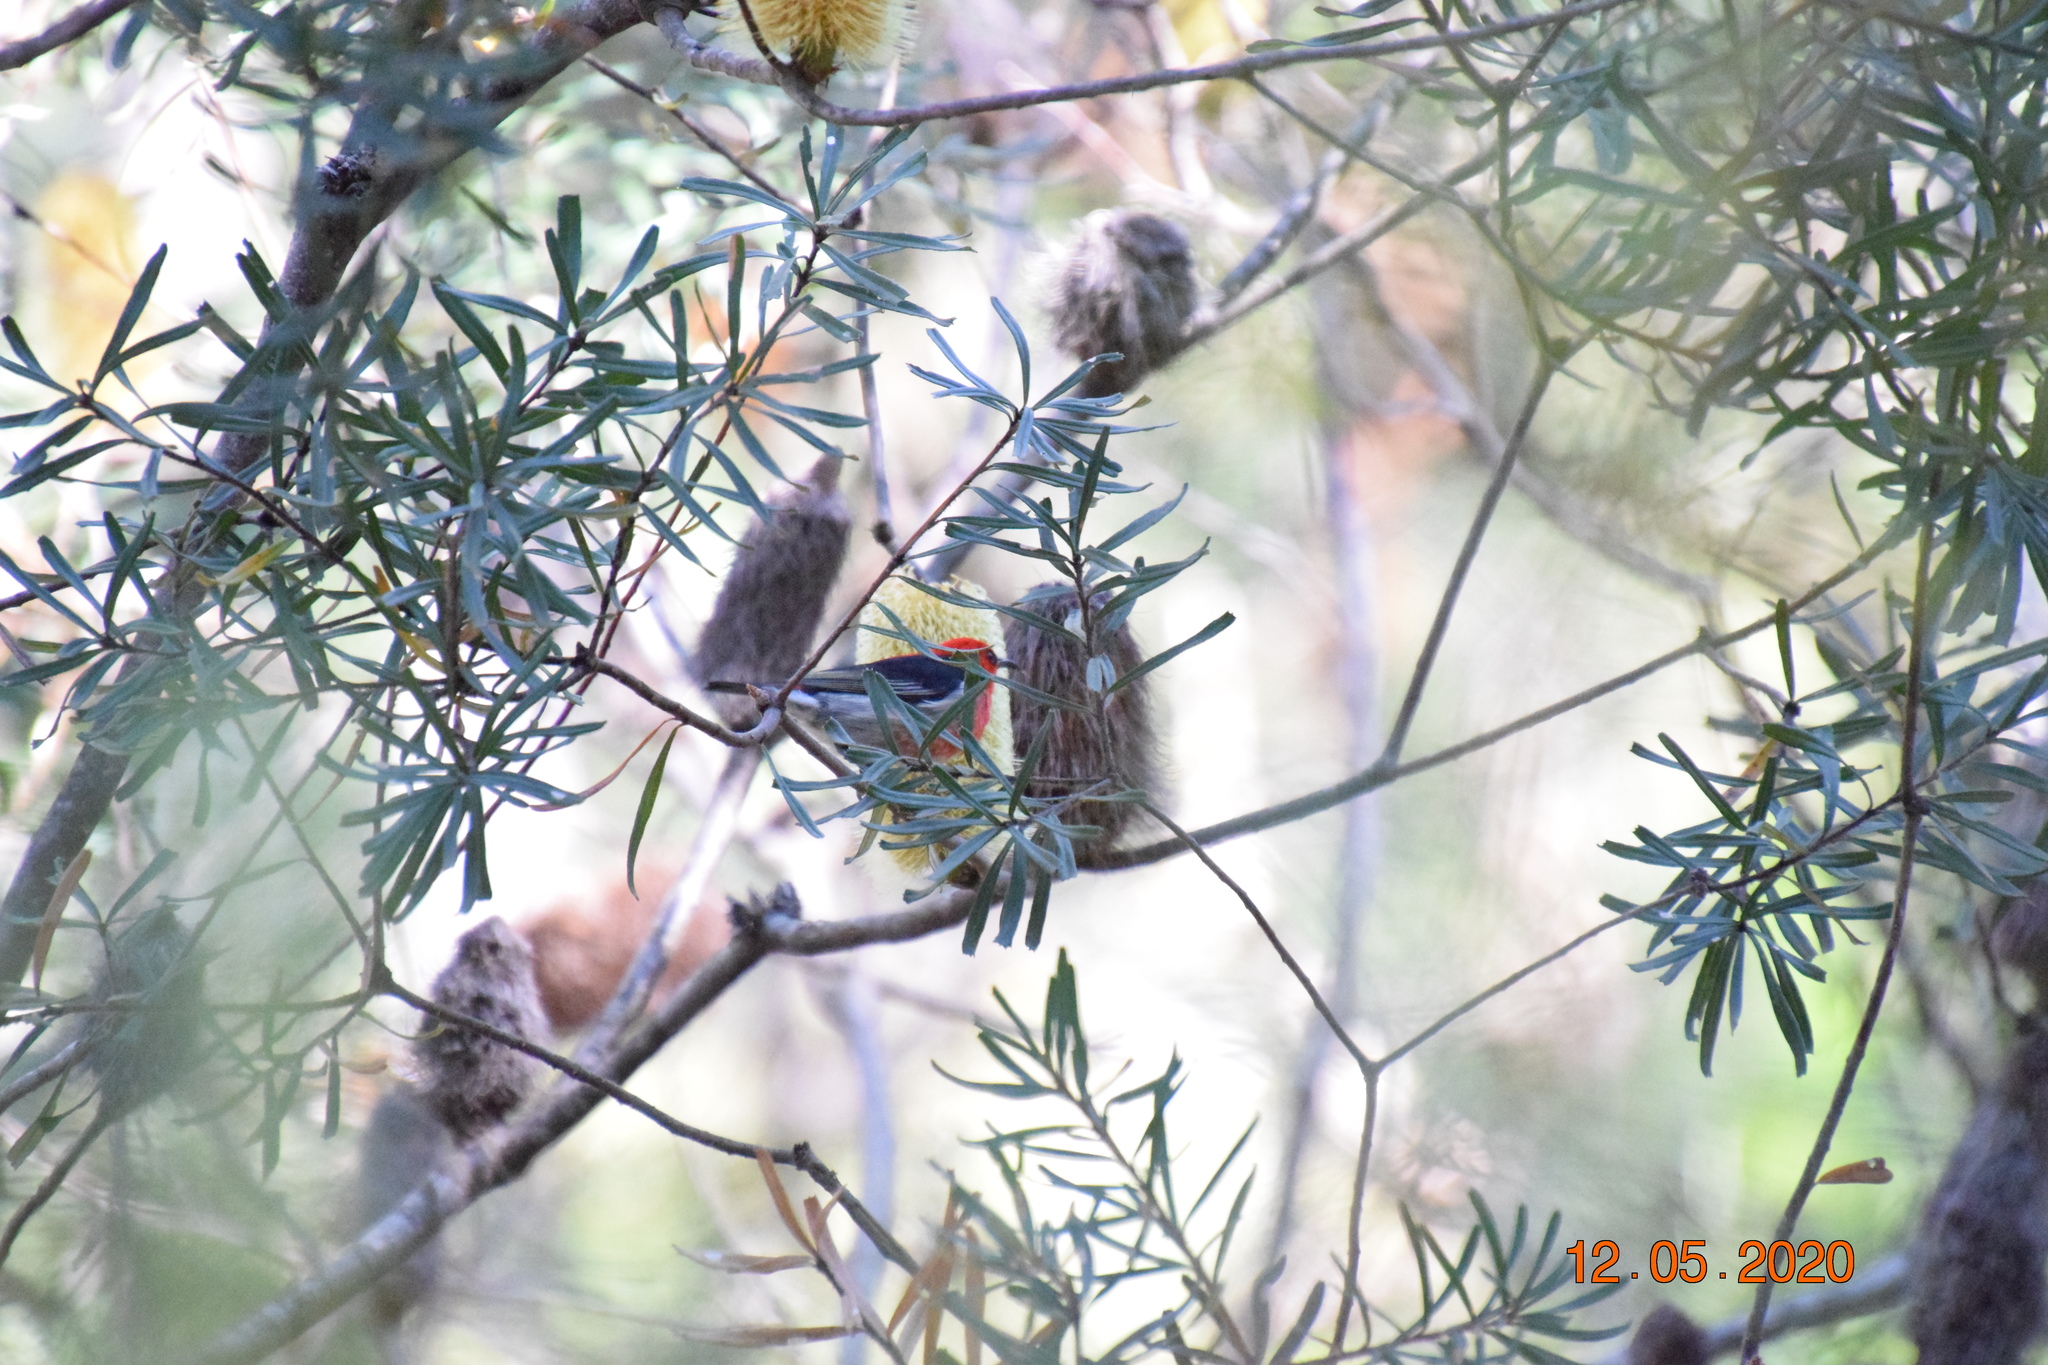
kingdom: Animalia
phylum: Chordata
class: Aves
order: Passeriformes
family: Meliphagidae
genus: Myzomela
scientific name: Myzomela sanguinolenta
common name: Scarlet myzomela
